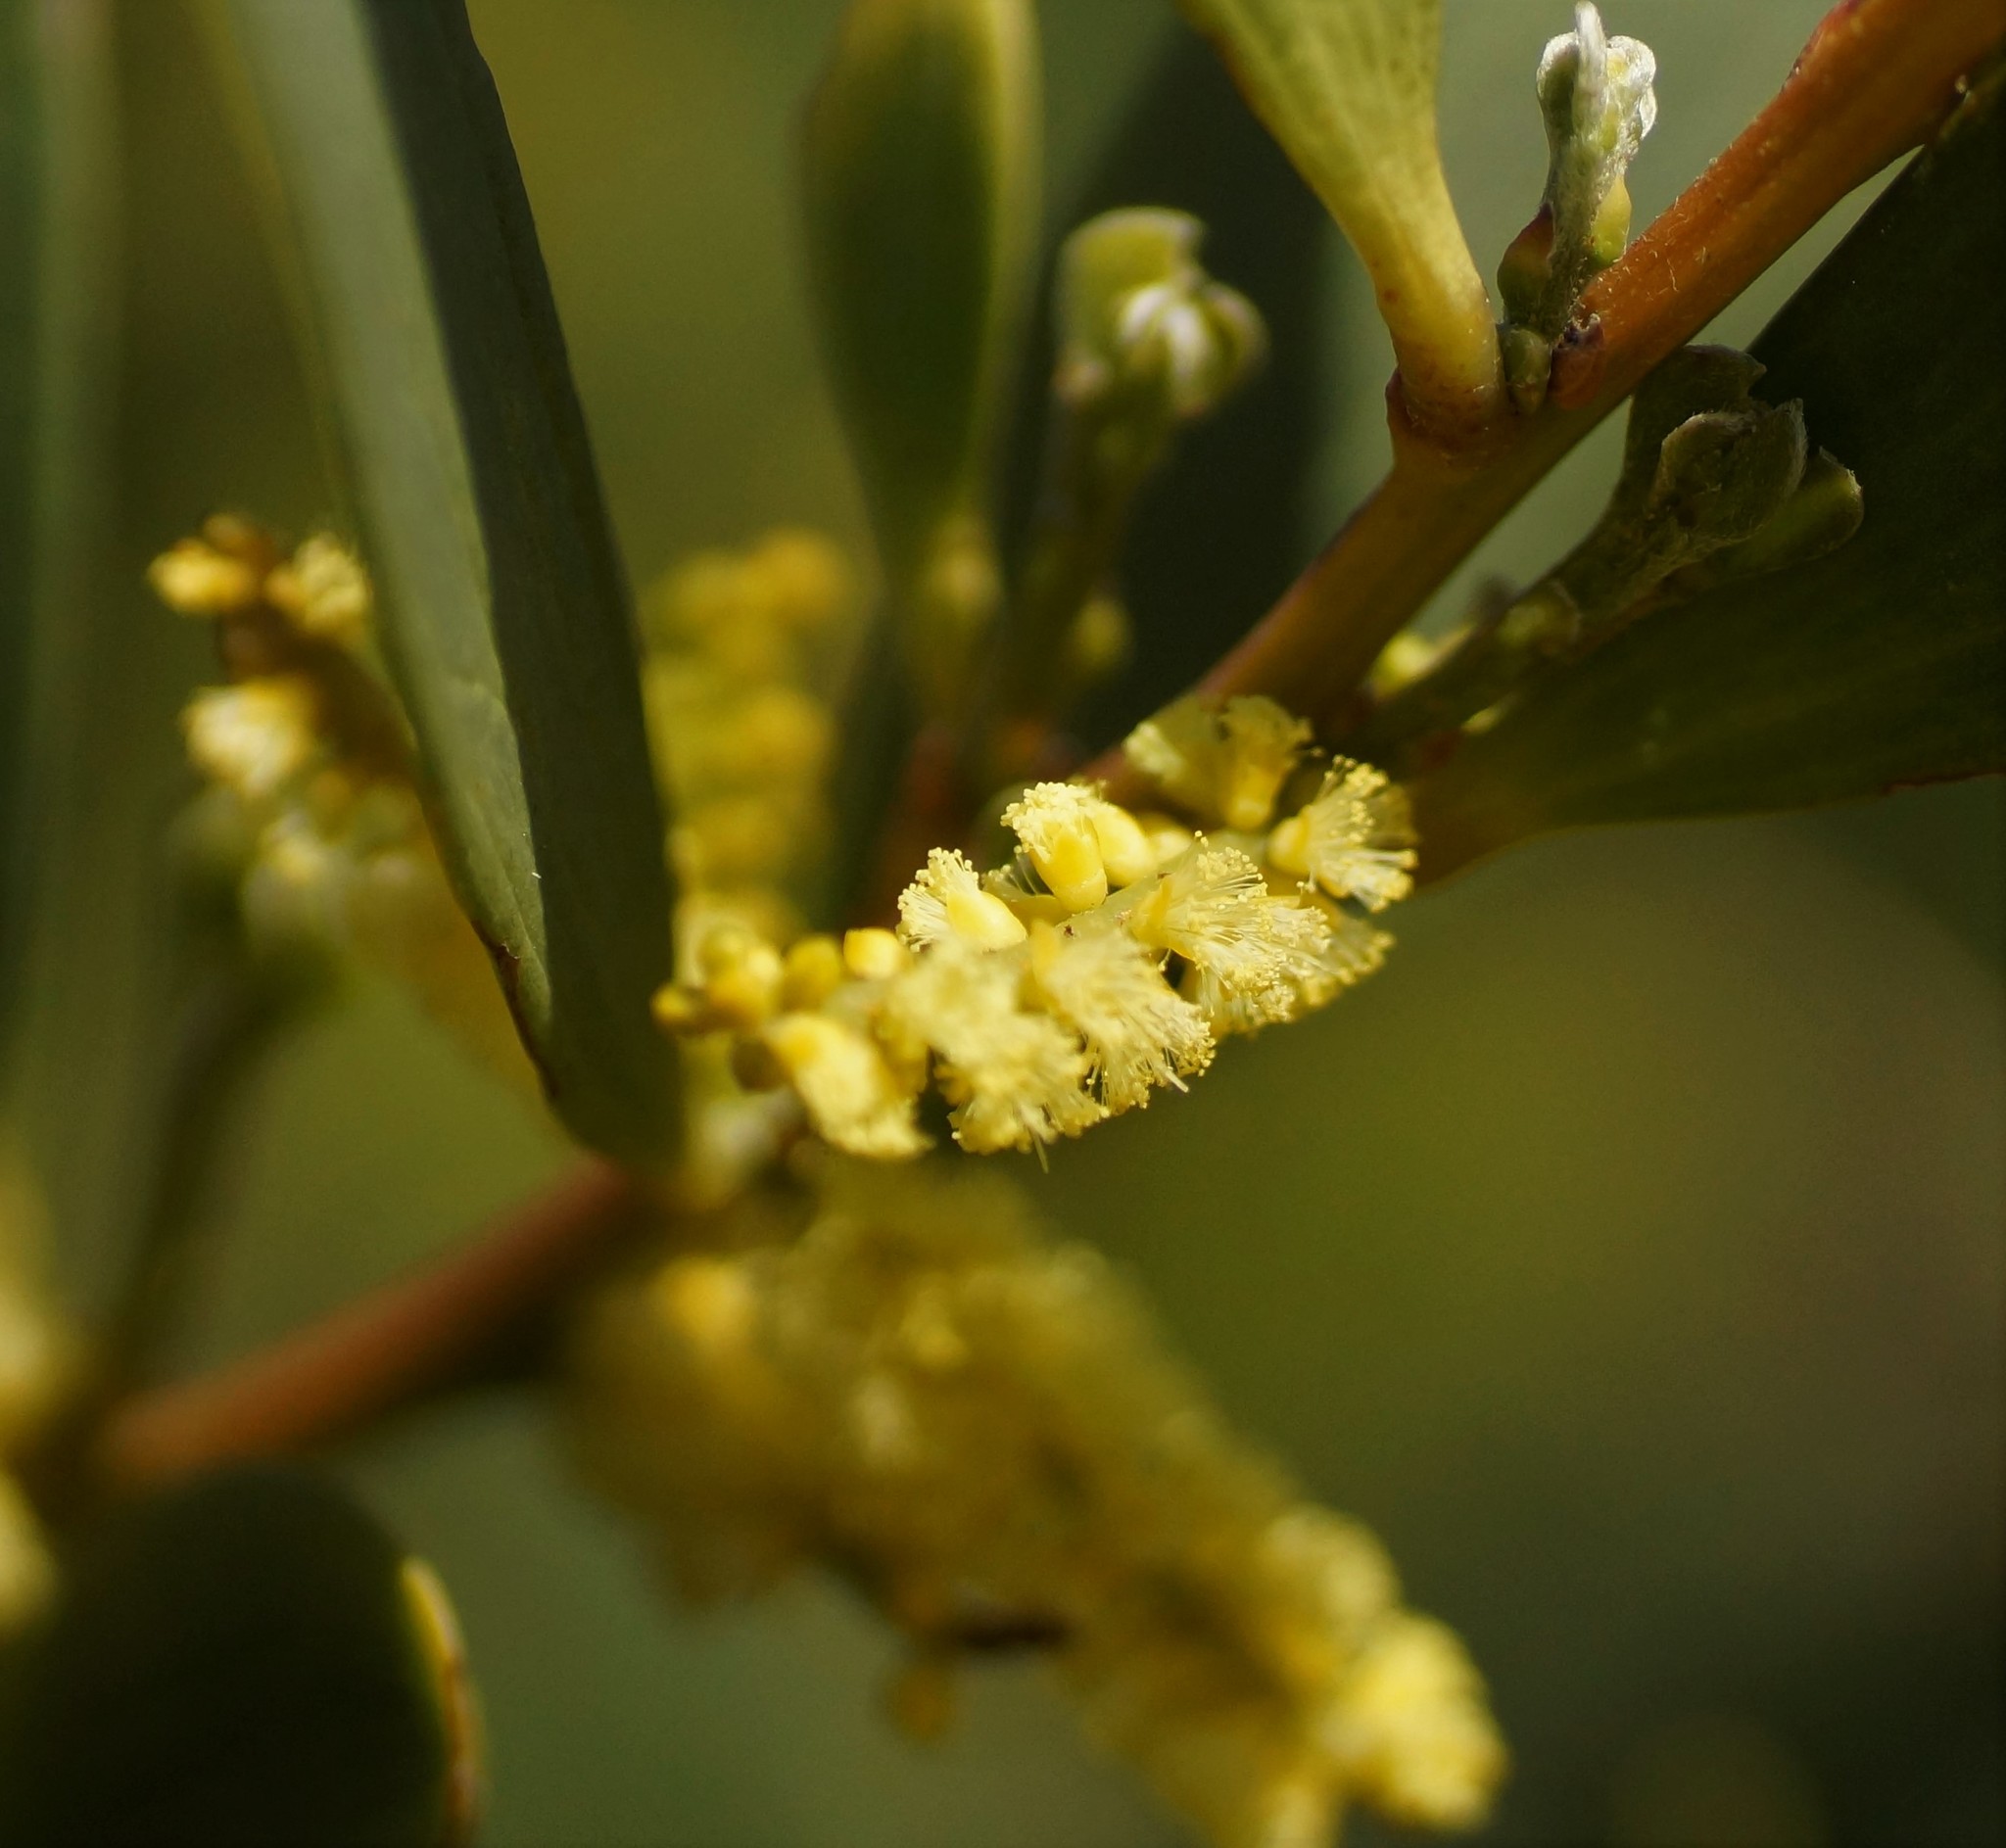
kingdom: Plantae
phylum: Tracheophyta
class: Magnoliopsida
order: Fabales
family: Fabaceae
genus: Acacia
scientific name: Acacia longifolia
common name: Sydney golden wattle
